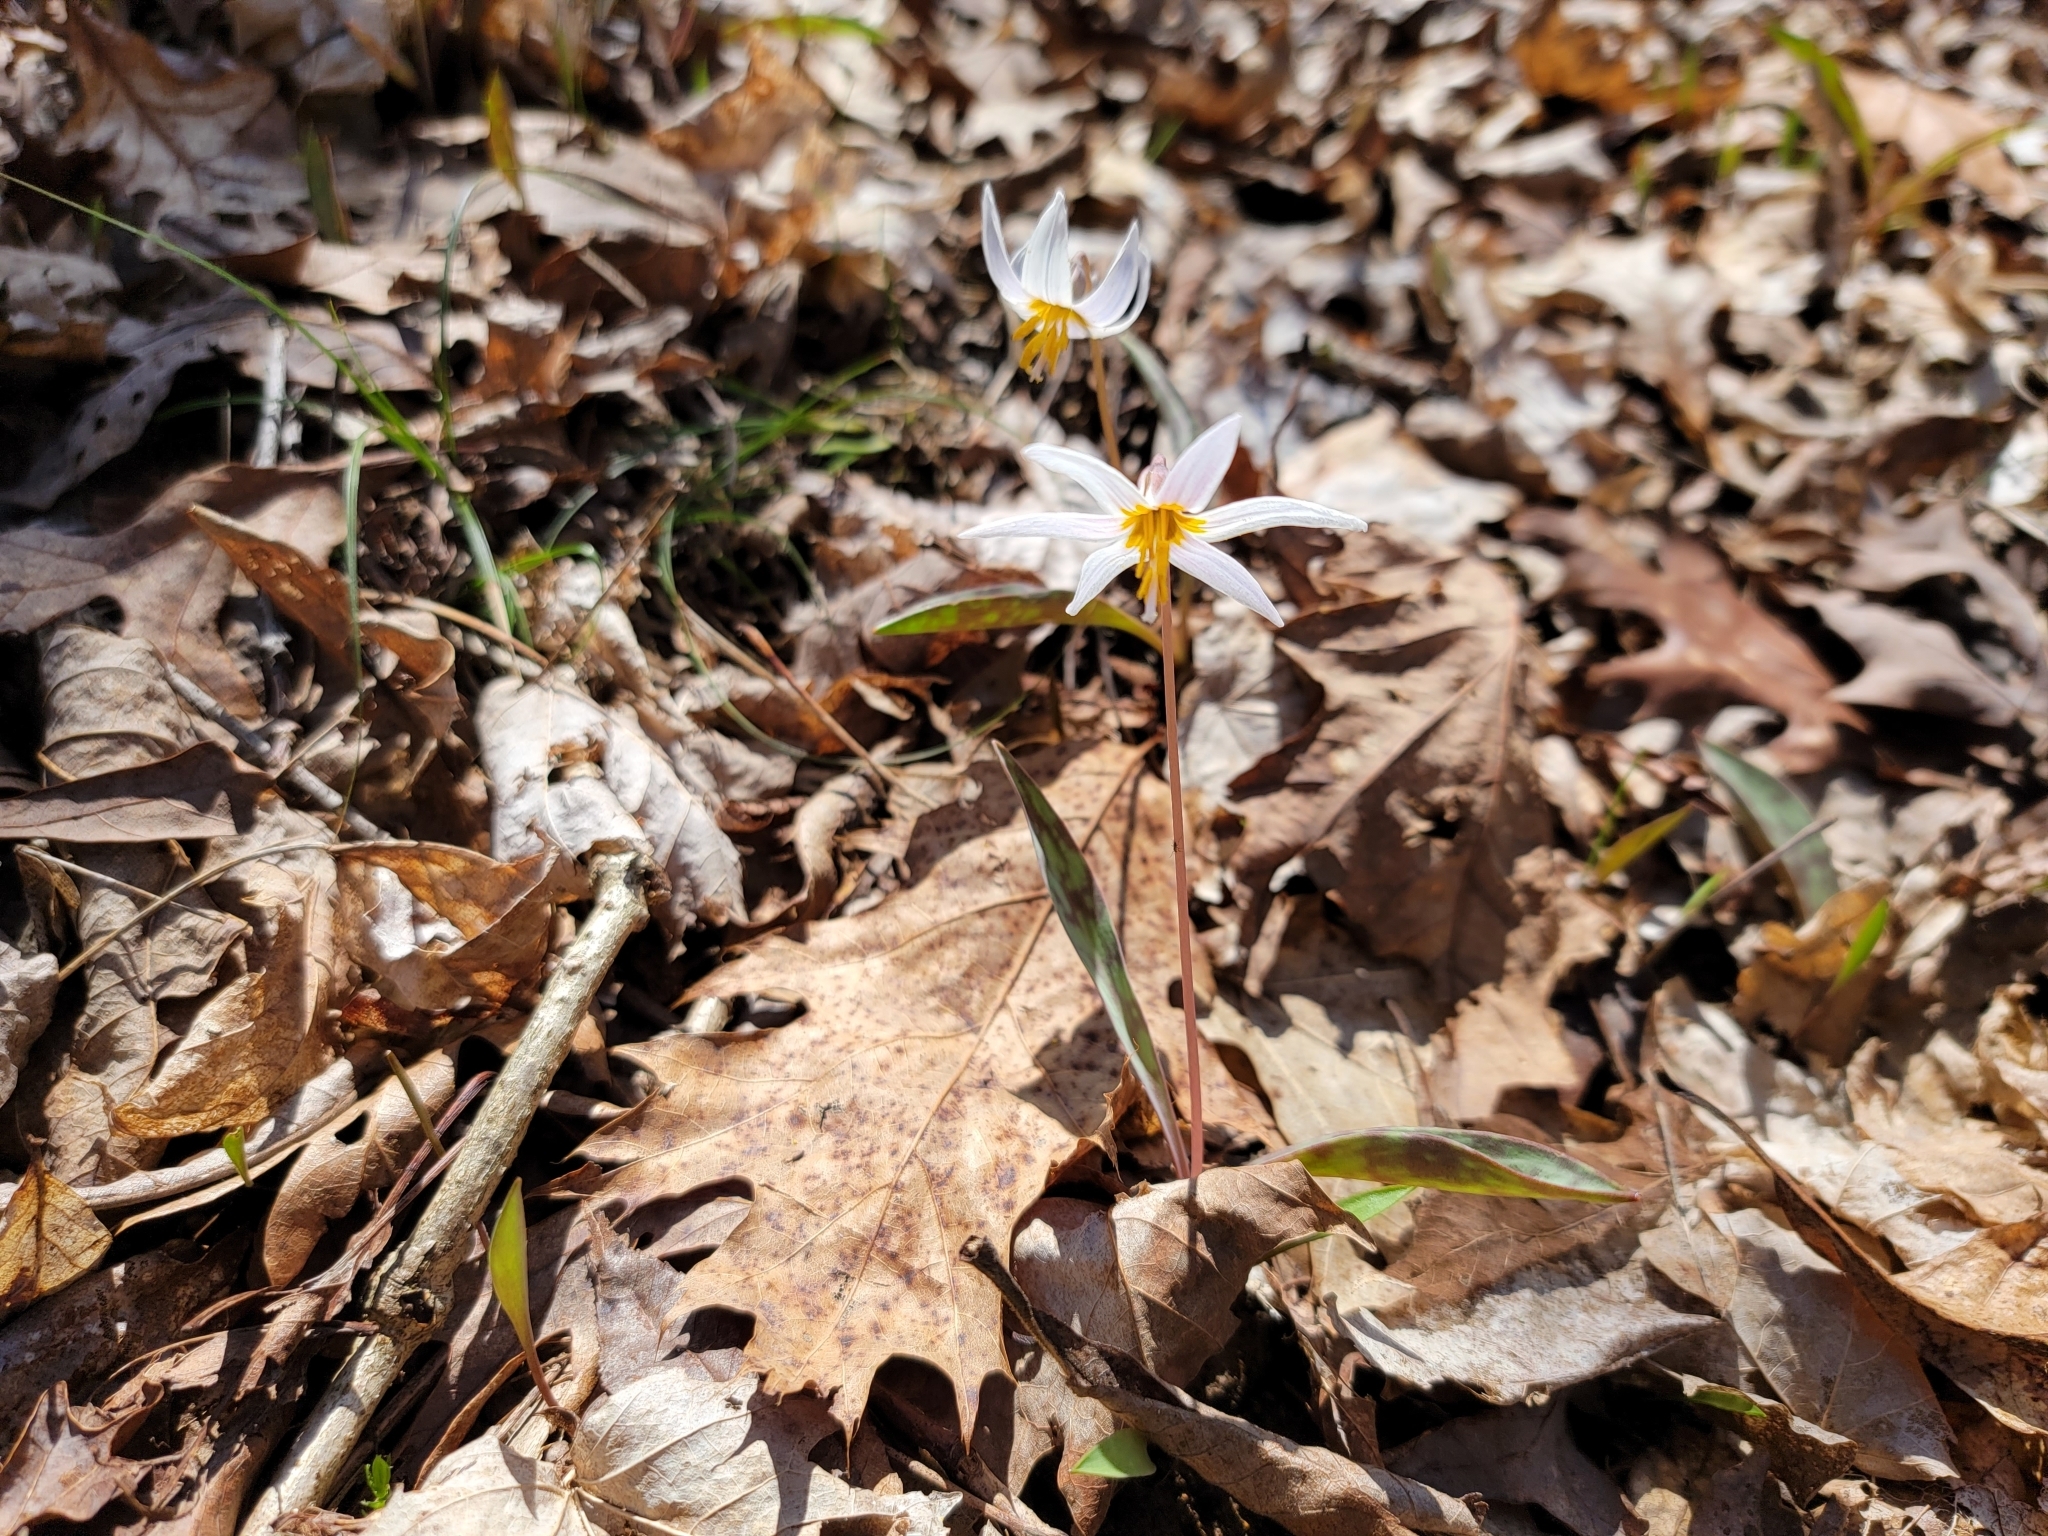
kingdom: Plantae
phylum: Tracheophyta
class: Liliopsida
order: Liliales
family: Liliaceae
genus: Erythronium
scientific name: Erythronium albidum
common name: White trout-lily
